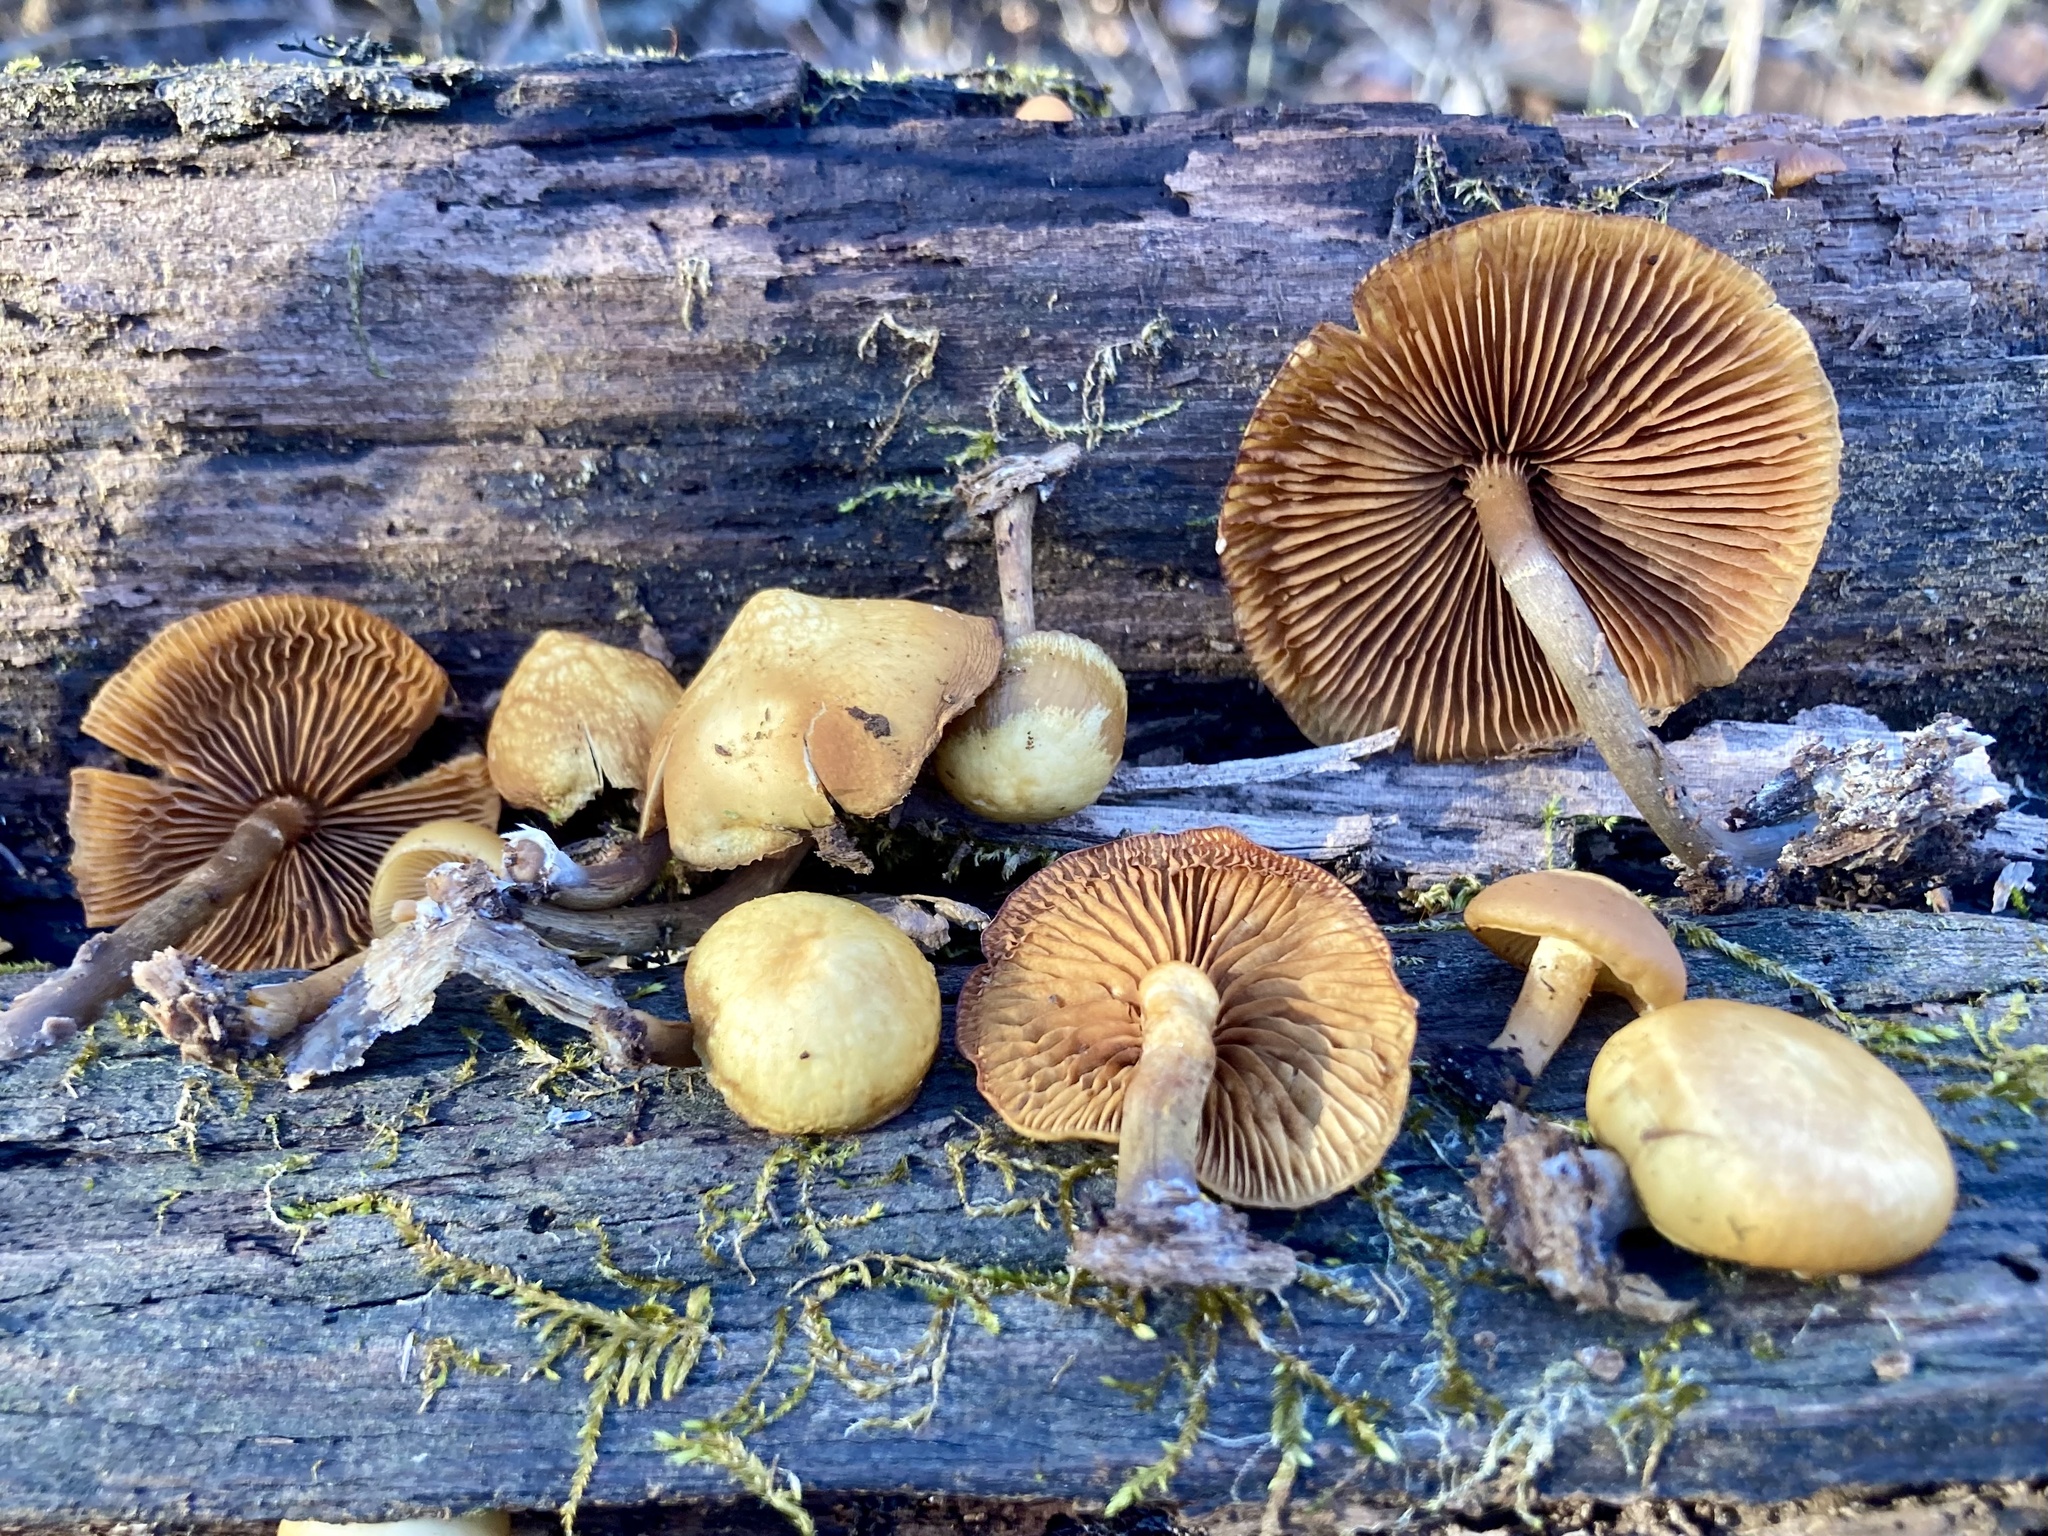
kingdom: Fungi
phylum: Basidiomycota
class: Agaricomycetes
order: Agaricales
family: Hymenogastraceae
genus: Galerina
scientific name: Galerina marginata
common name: Funeral bell
